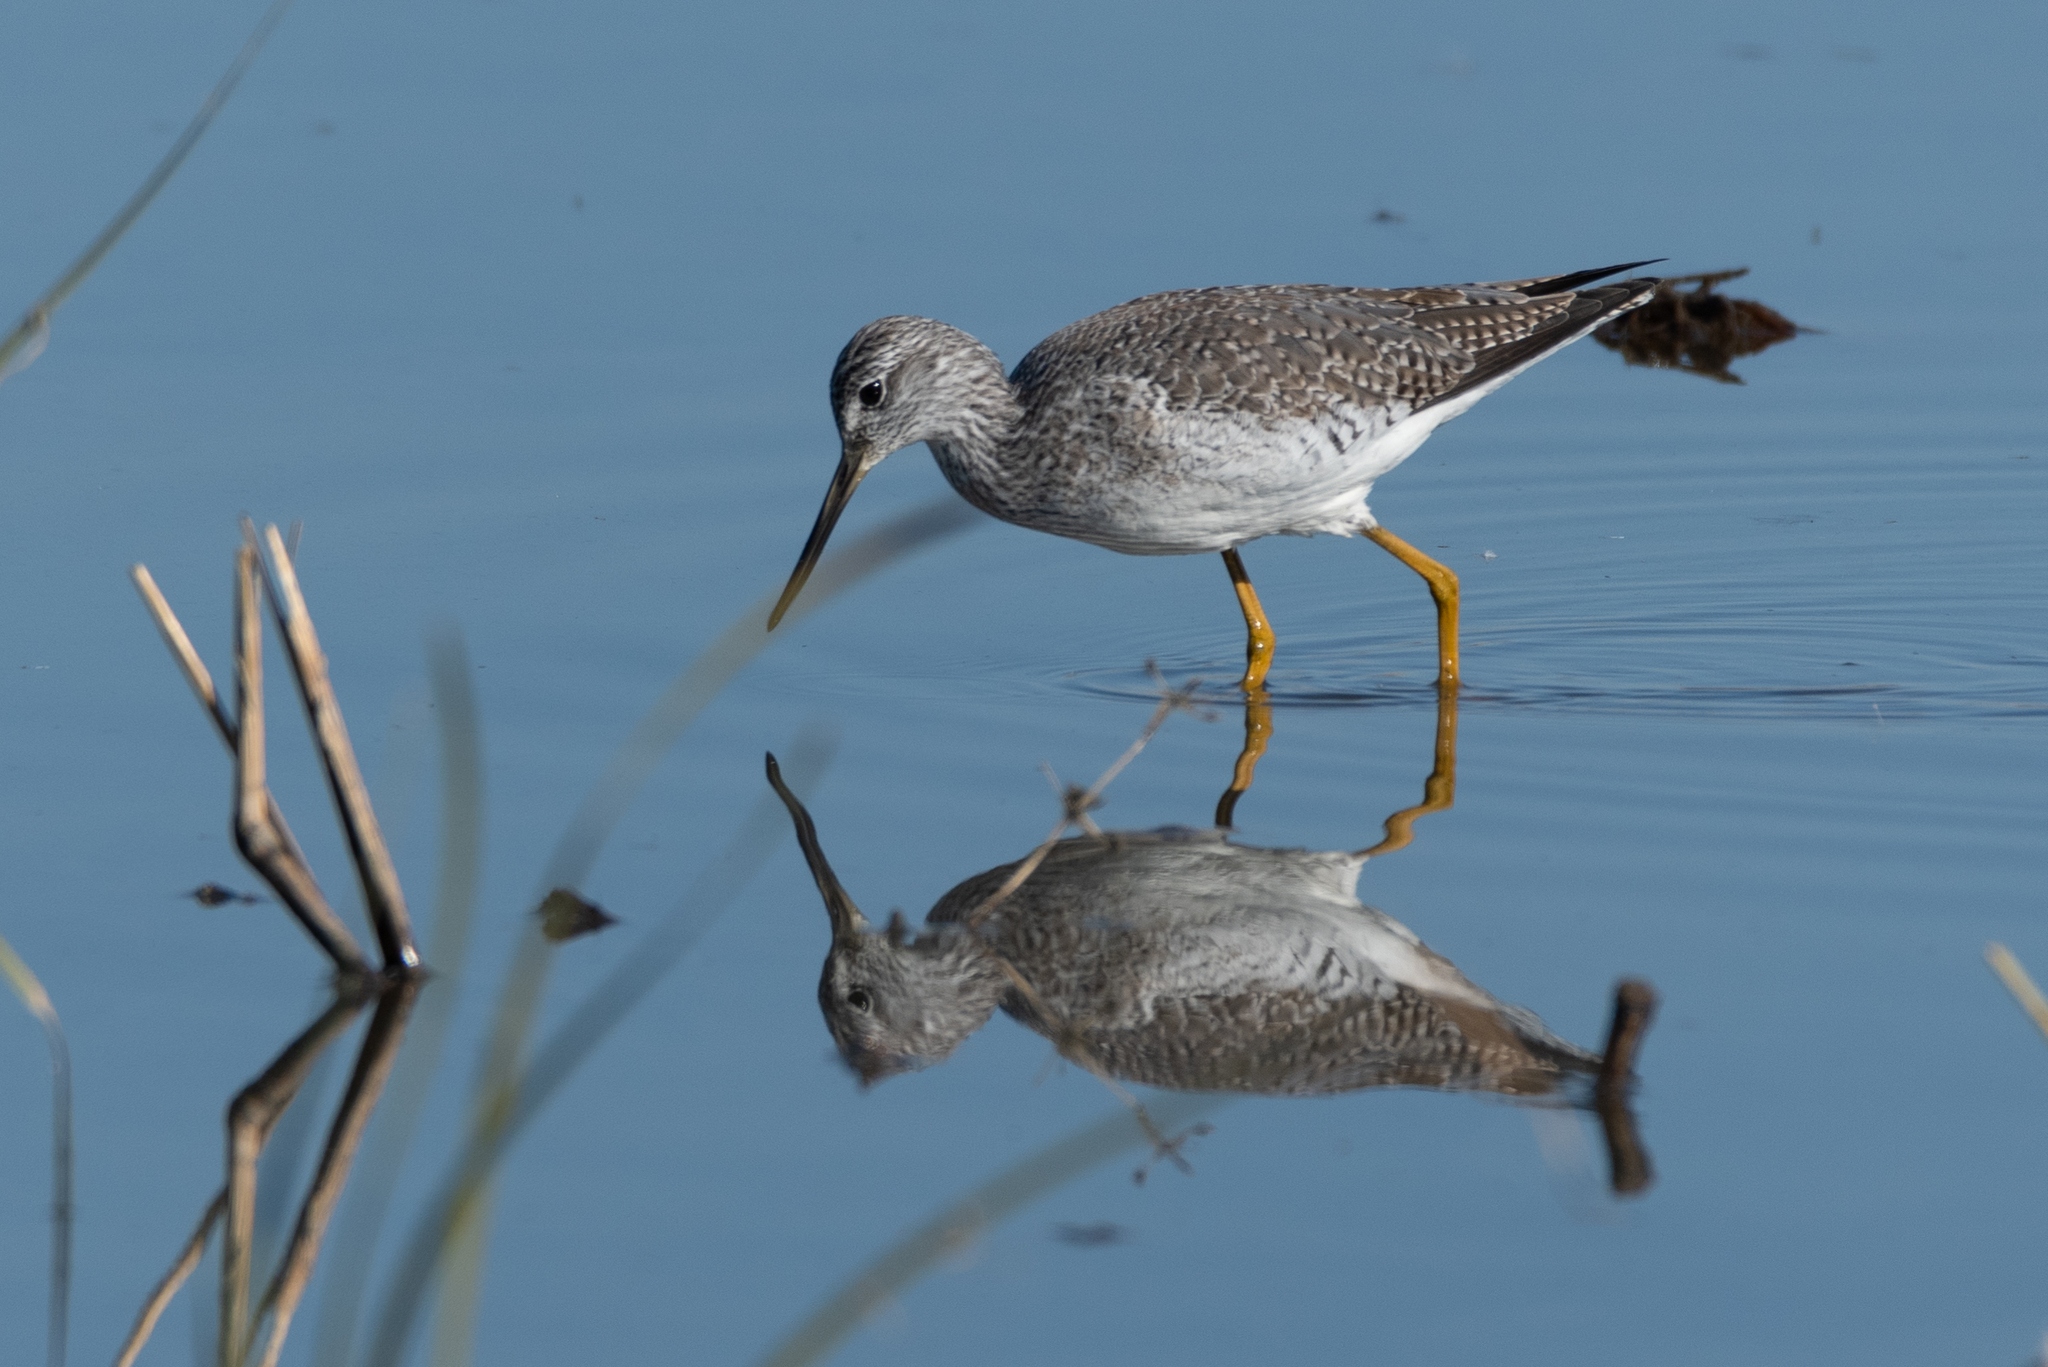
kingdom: Animalia
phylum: Chordata
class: Aves
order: Charadriiformes
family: Scolopacidae
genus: Tringa
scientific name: Tringa melanoleuca
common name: Greater yellowlegs
